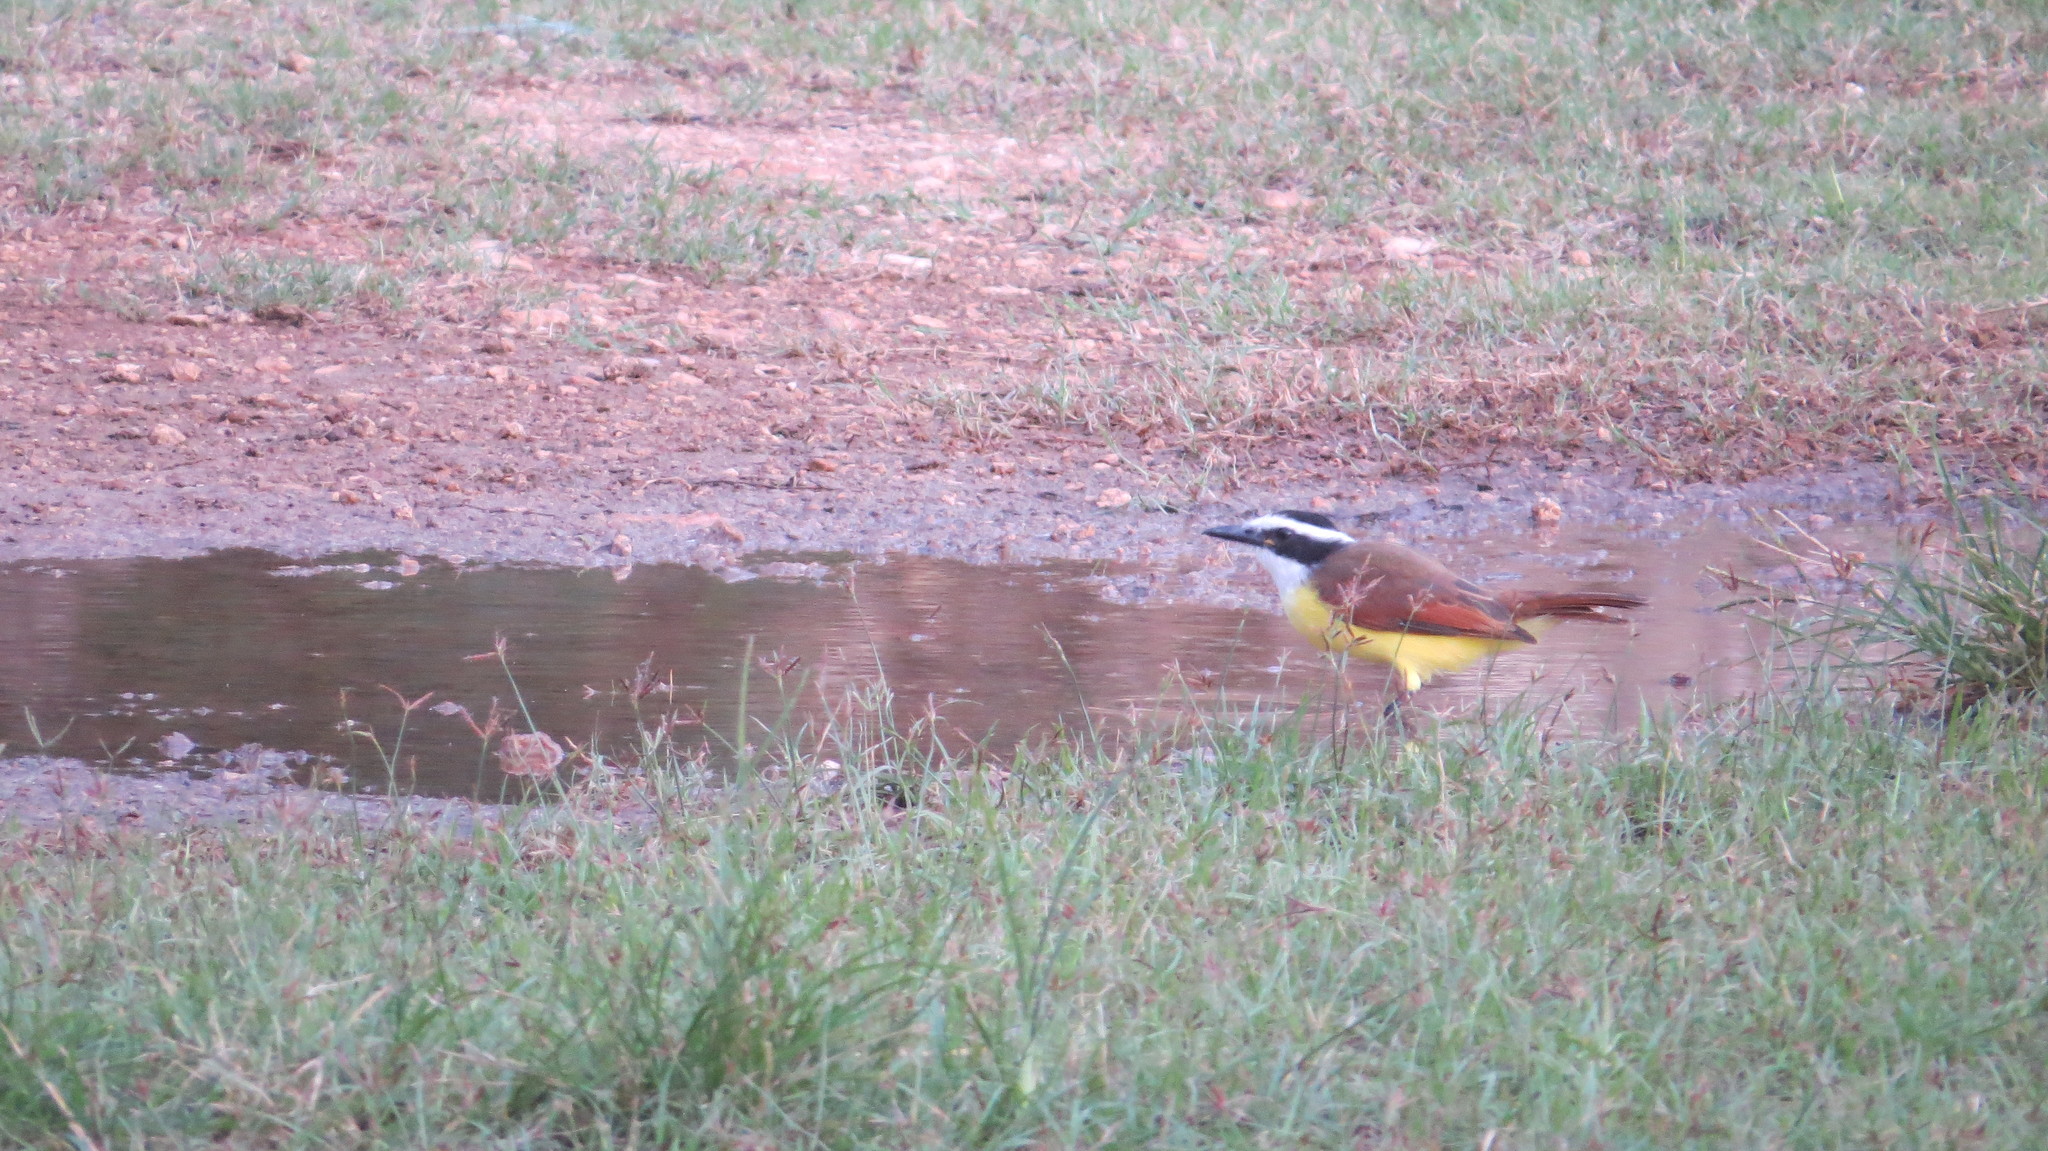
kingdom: Animalia
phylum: Chordata
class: Aves
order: Passeriformes
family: Tyrannidae
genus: Pitangus
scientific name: Pitangus sulphuratus
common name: Great kiskadee
